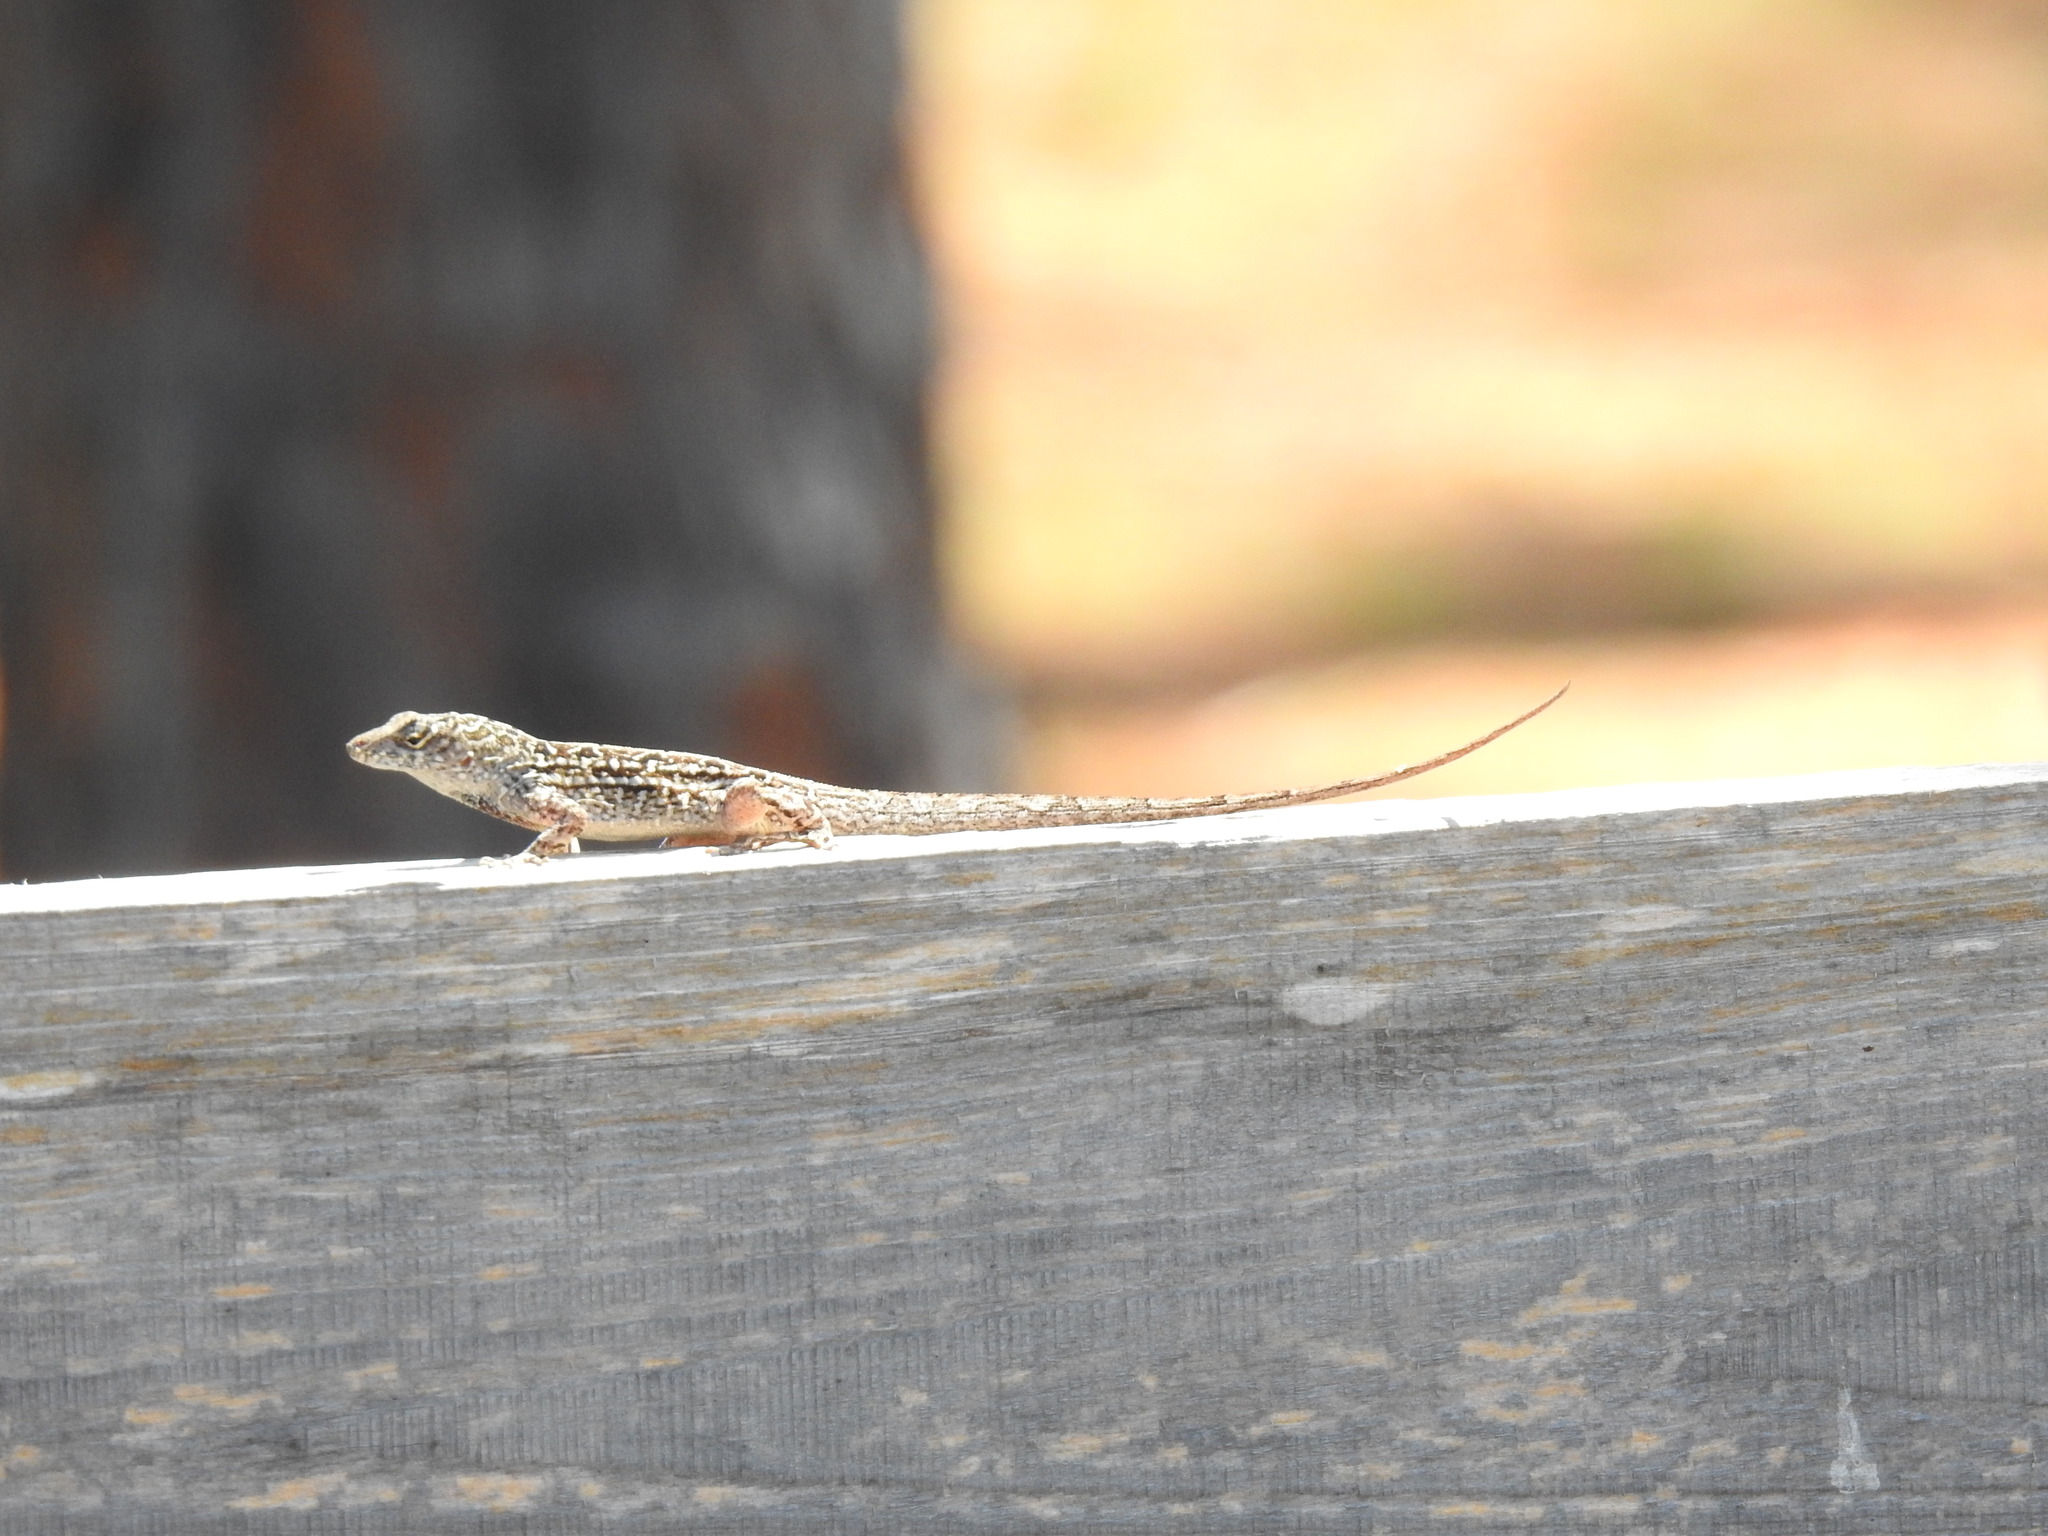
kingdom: Animalia
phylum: Chordata
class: Squamata
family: Dactyloidae
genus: Anolis
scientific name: Anolis sagrei
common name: Brown anole
